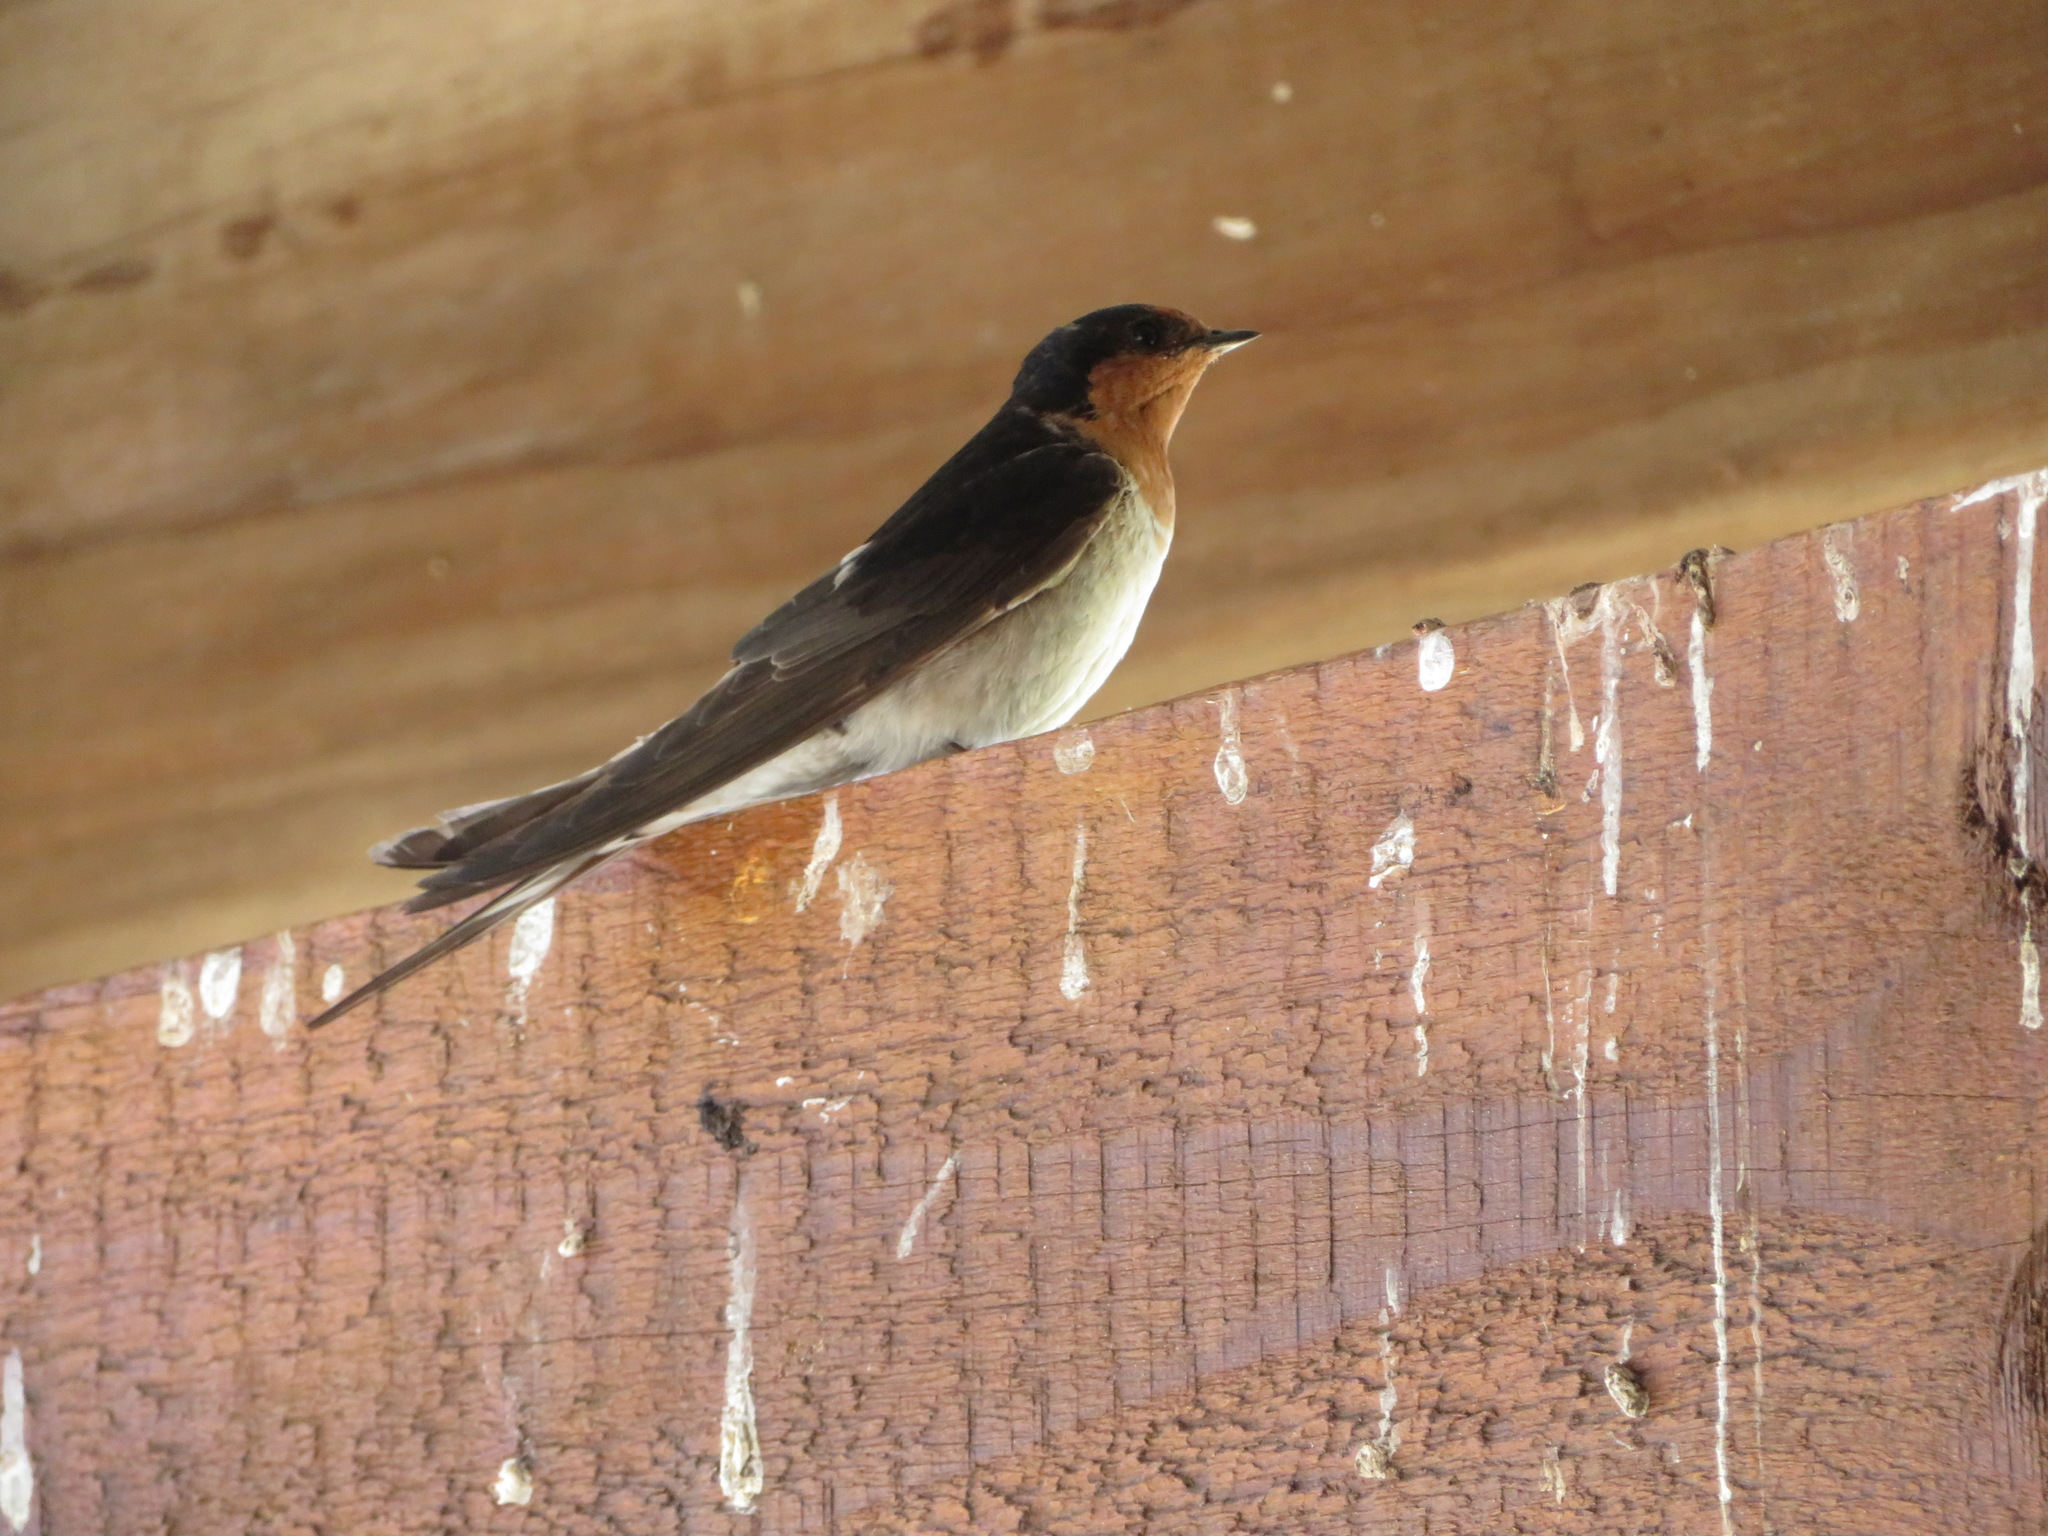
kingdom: Animalia
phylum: Chordata
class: Aves
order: Passeriformes
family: Hirundinidae
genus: Hirundo
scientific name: Hirundo neoxena
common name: Welcome swallow
